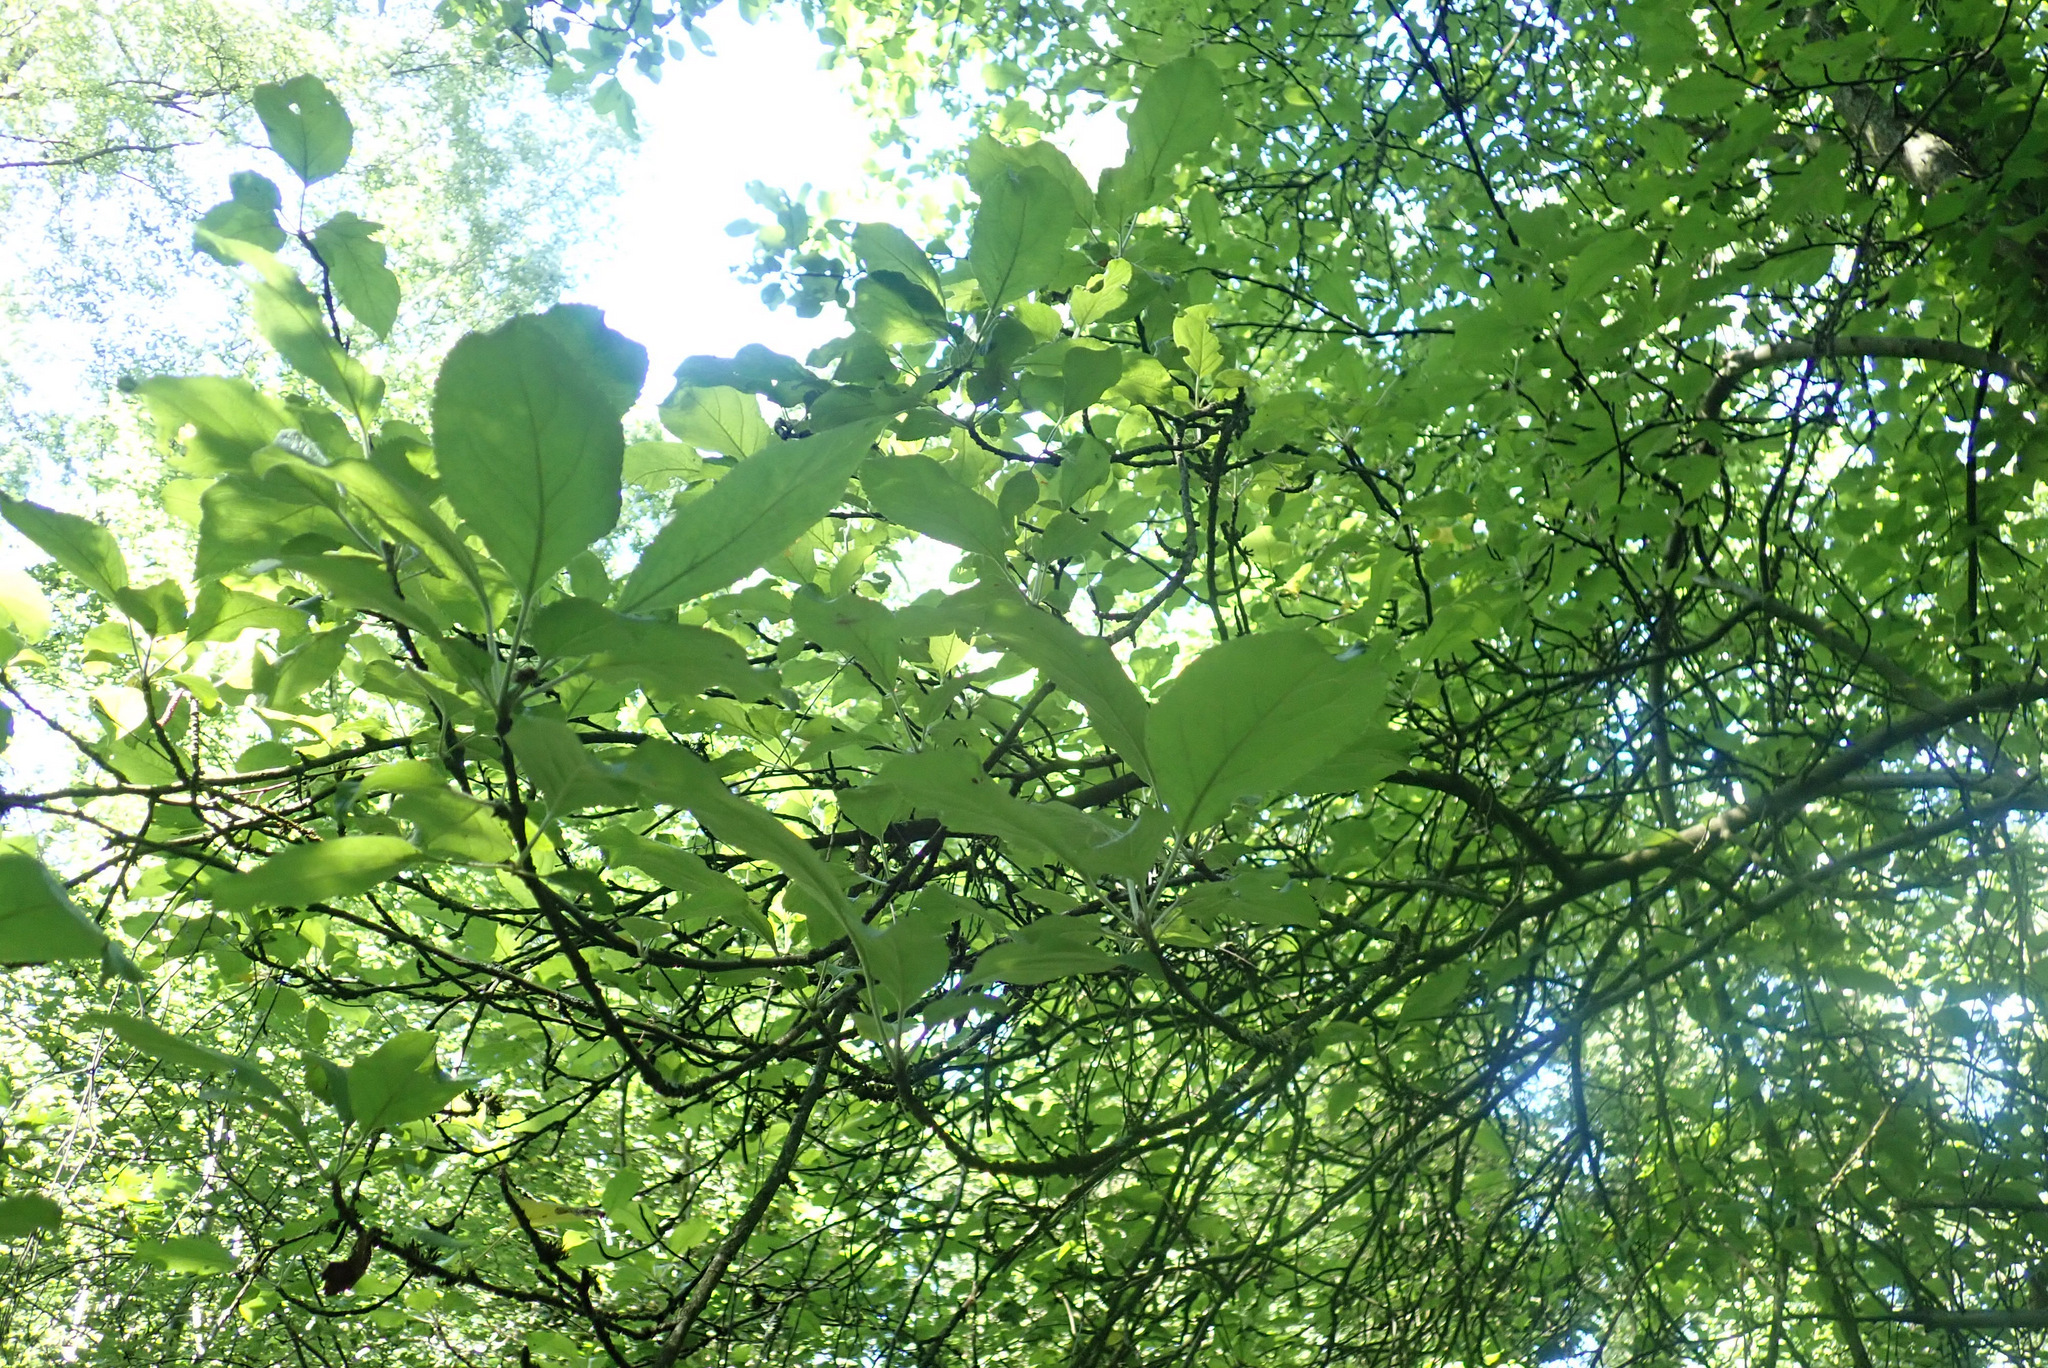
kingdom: Plantae
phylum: Tracheophyta
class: Magnoliopsida
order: Rosales
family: Rosaceae
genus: Malus
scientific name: Malus domestica
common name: Apple
